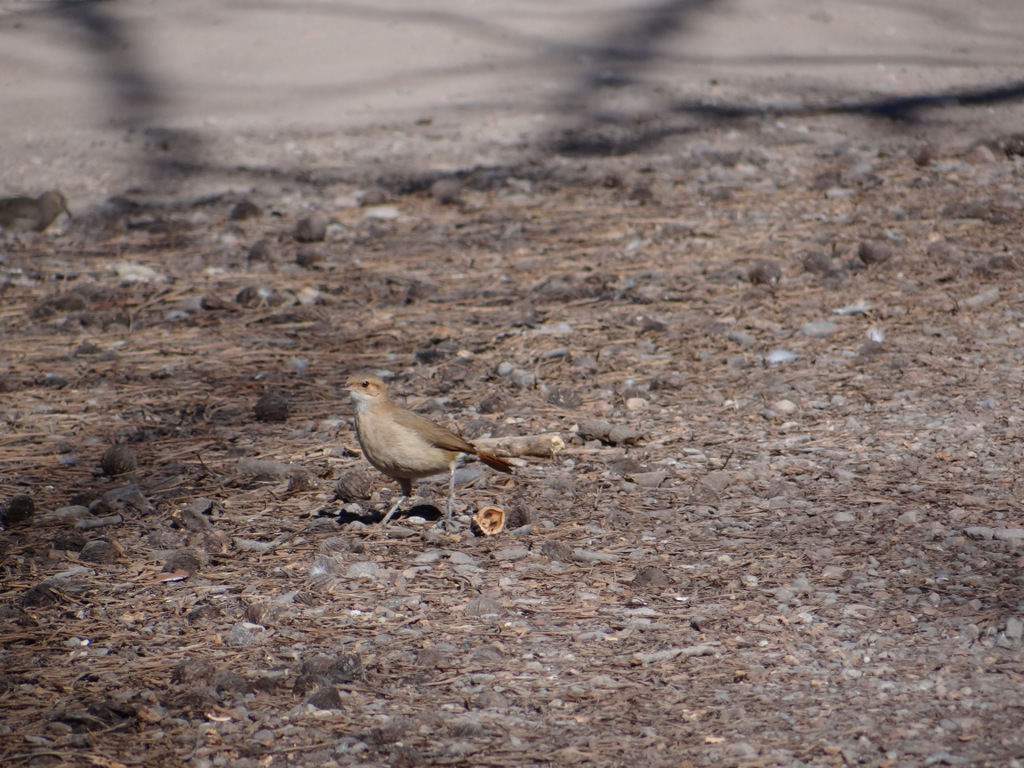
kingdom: Animalia
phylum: Chordata
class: Aves
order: Passeriformes
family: Furnariidae
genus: Furnarius
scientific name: Furnarius rufus
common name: Rufous hornero
